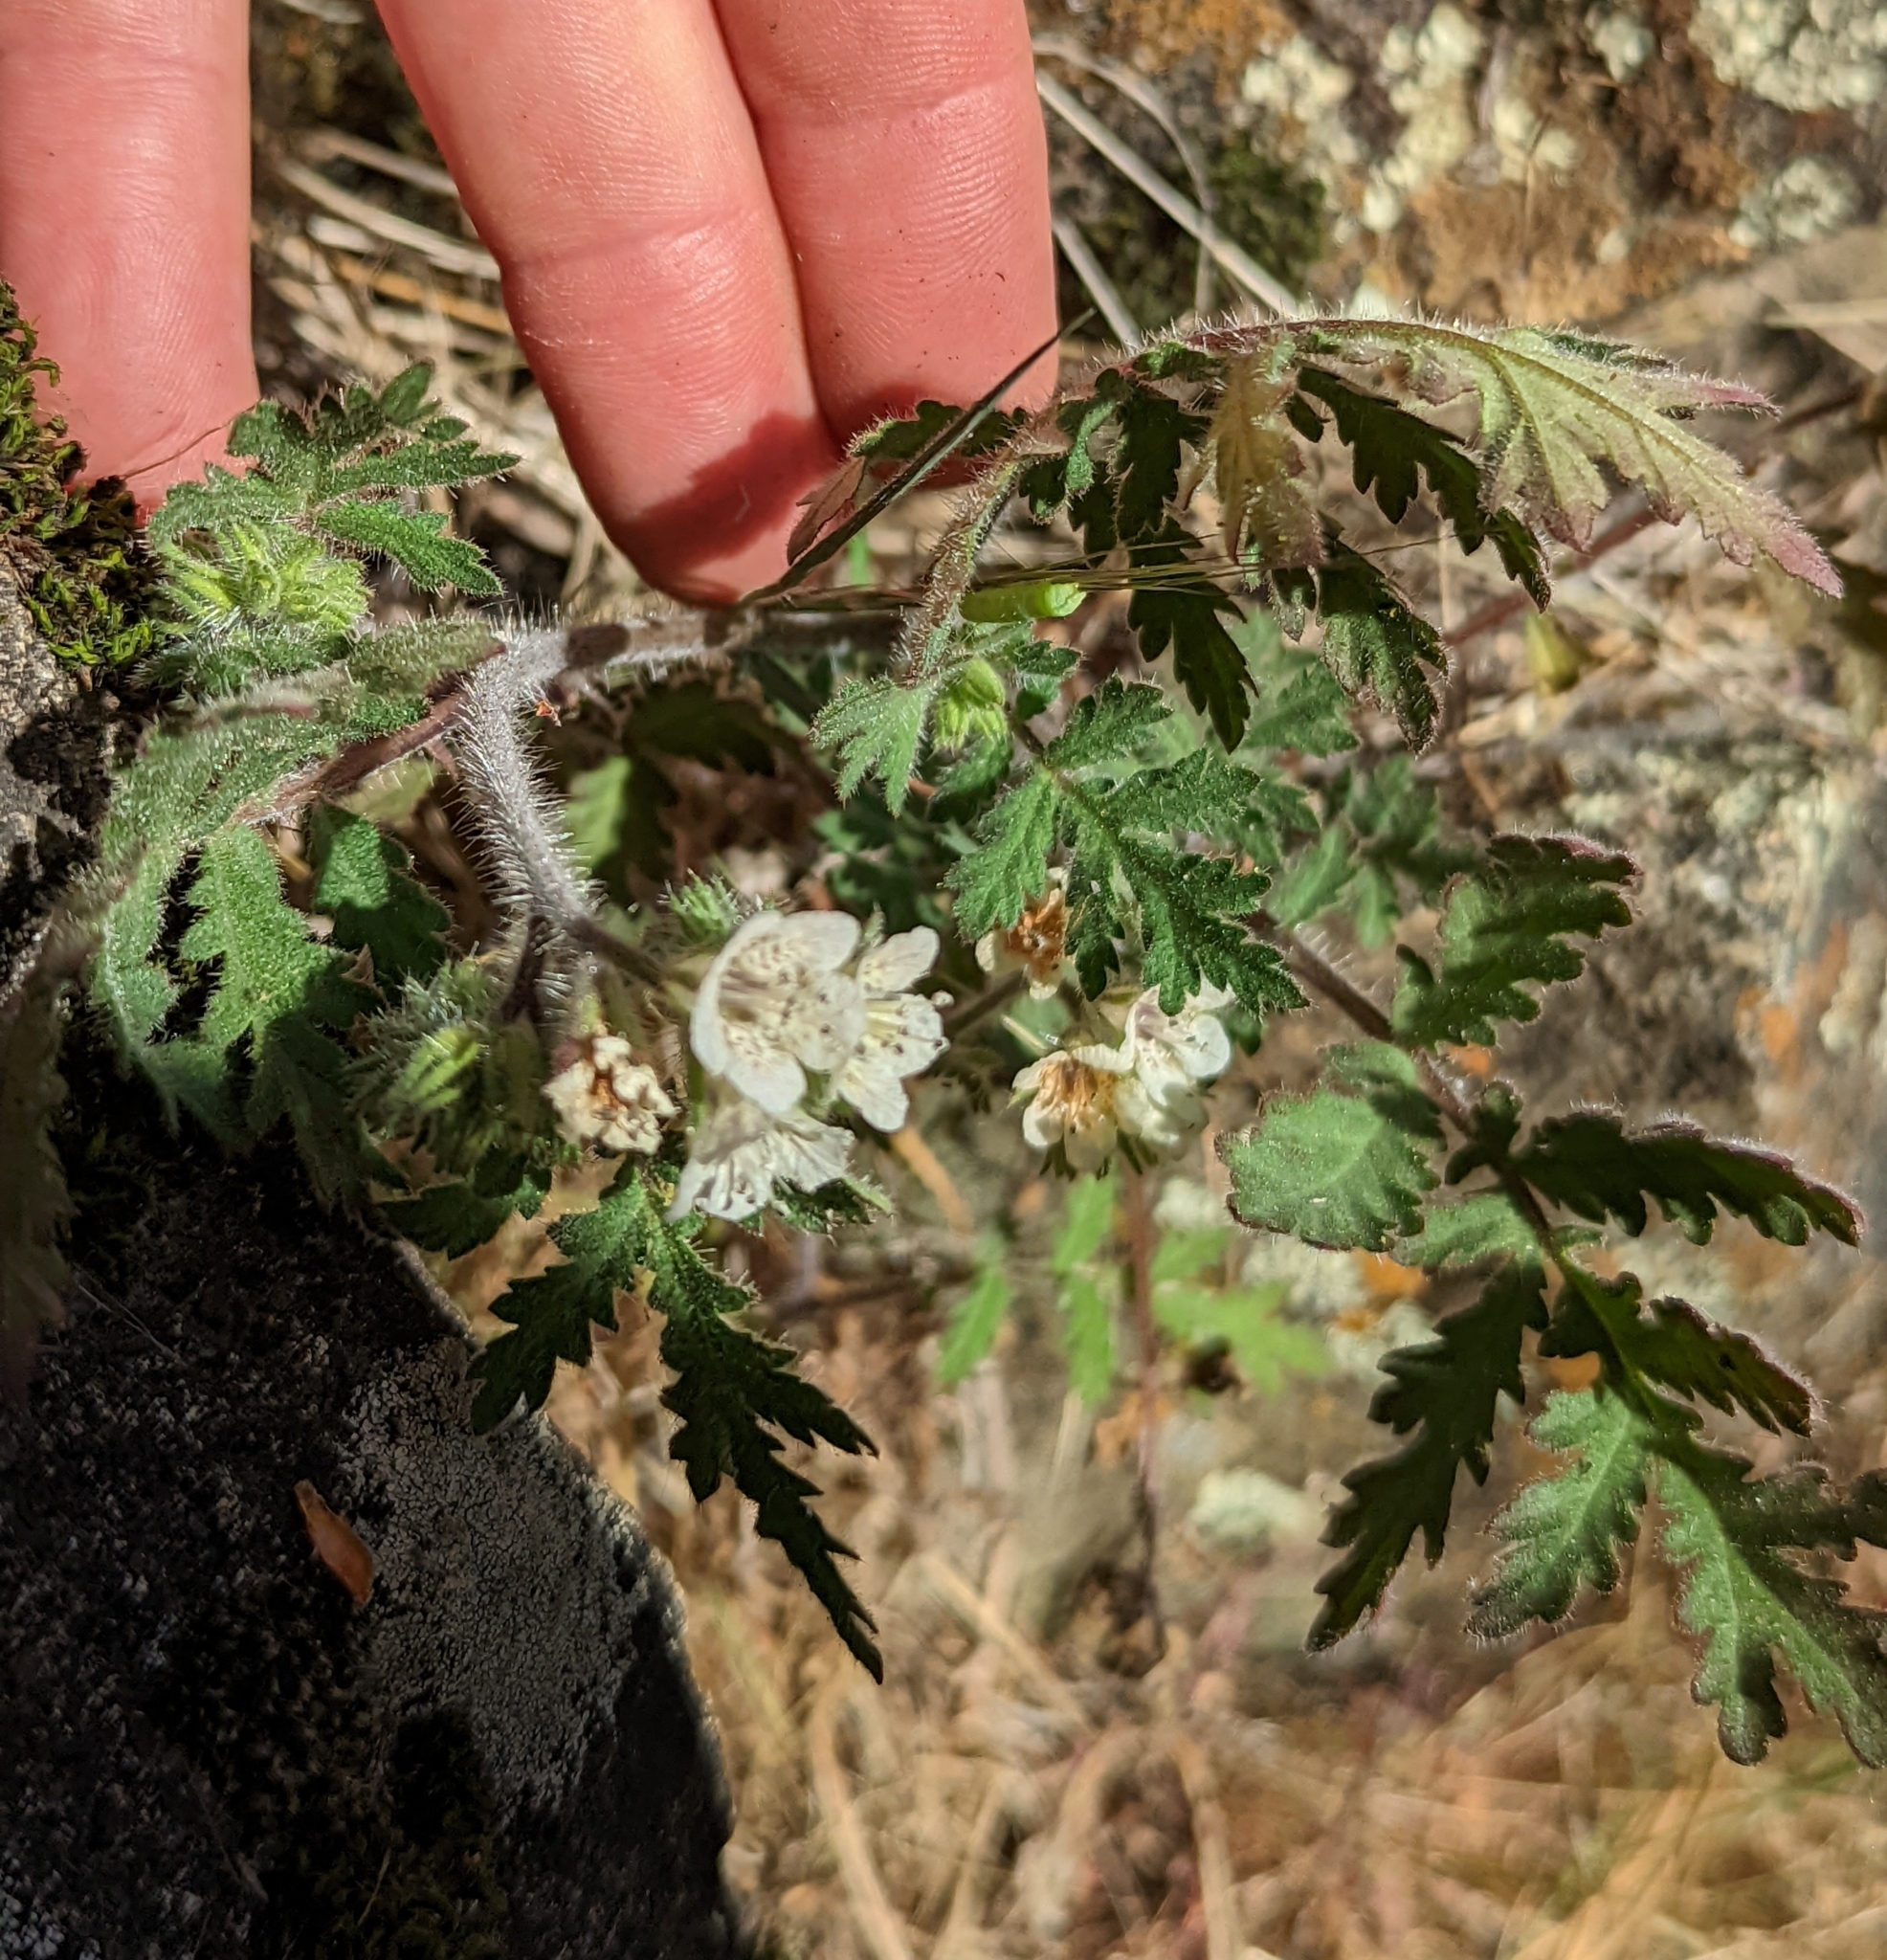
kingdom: Plantae
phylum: Tracheophyta
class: Magnoliopsida
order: Boraginales
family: Hydrophyllaceae
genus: Phacelia
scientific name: Phacelia cicutaria
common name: Caterpillar phacelia
